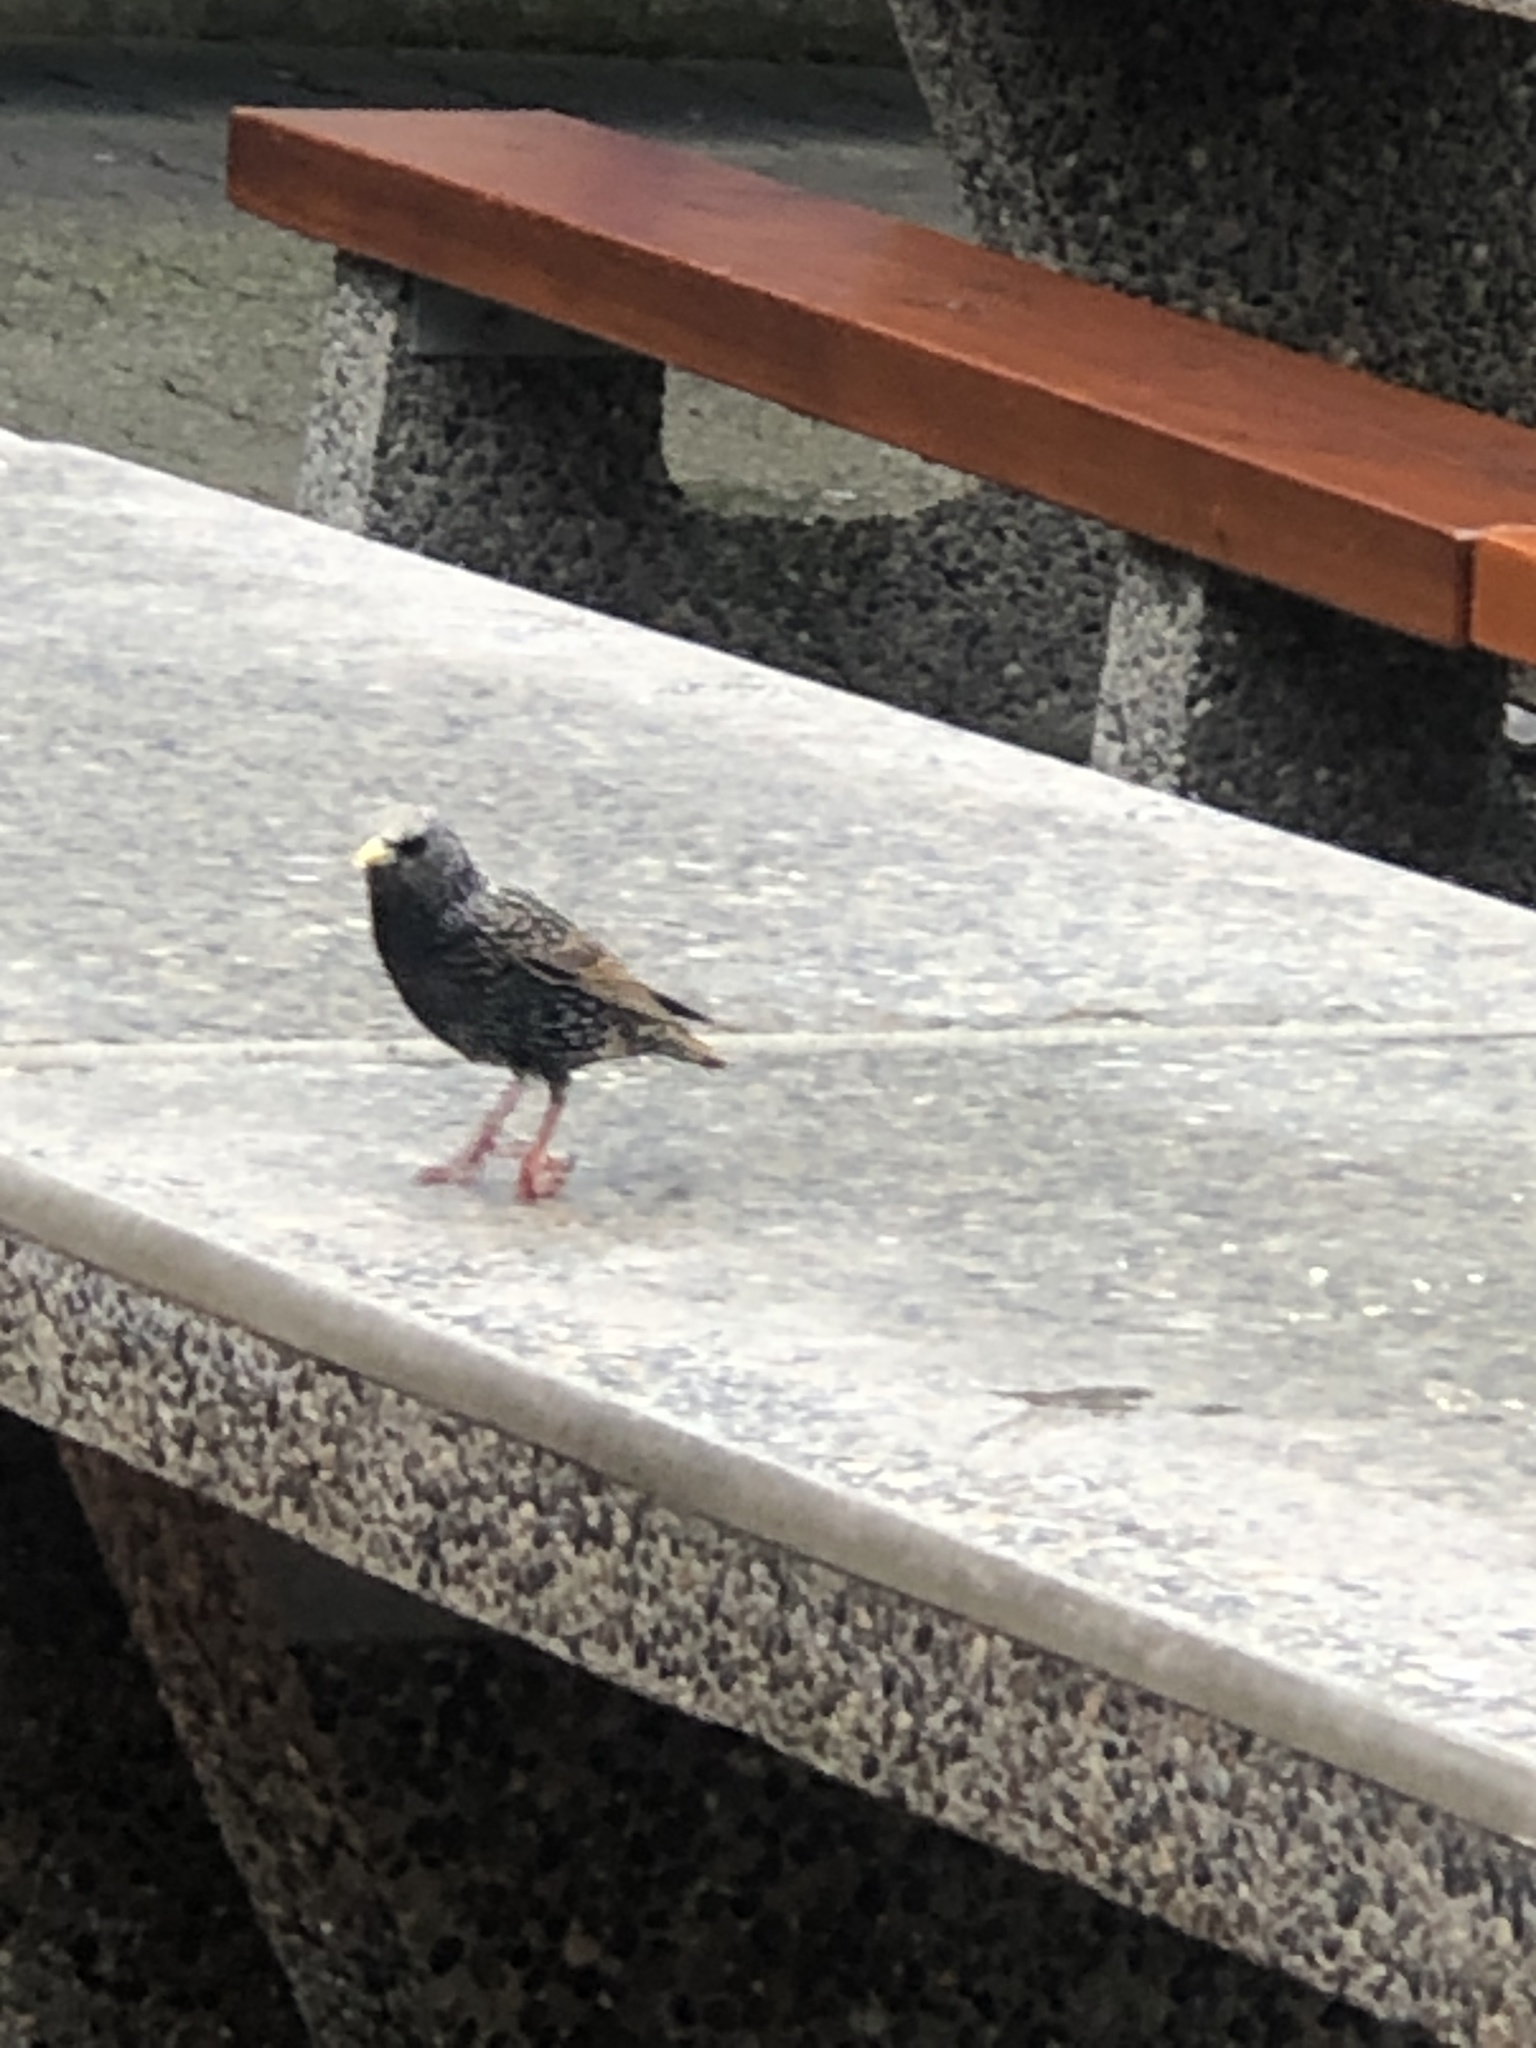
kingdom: Animalia
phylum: Chordata
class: Aves
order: Passeriformes
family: Sturnidae
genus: Sturnus
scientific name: Sturnus vulgaris
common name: Common starling
